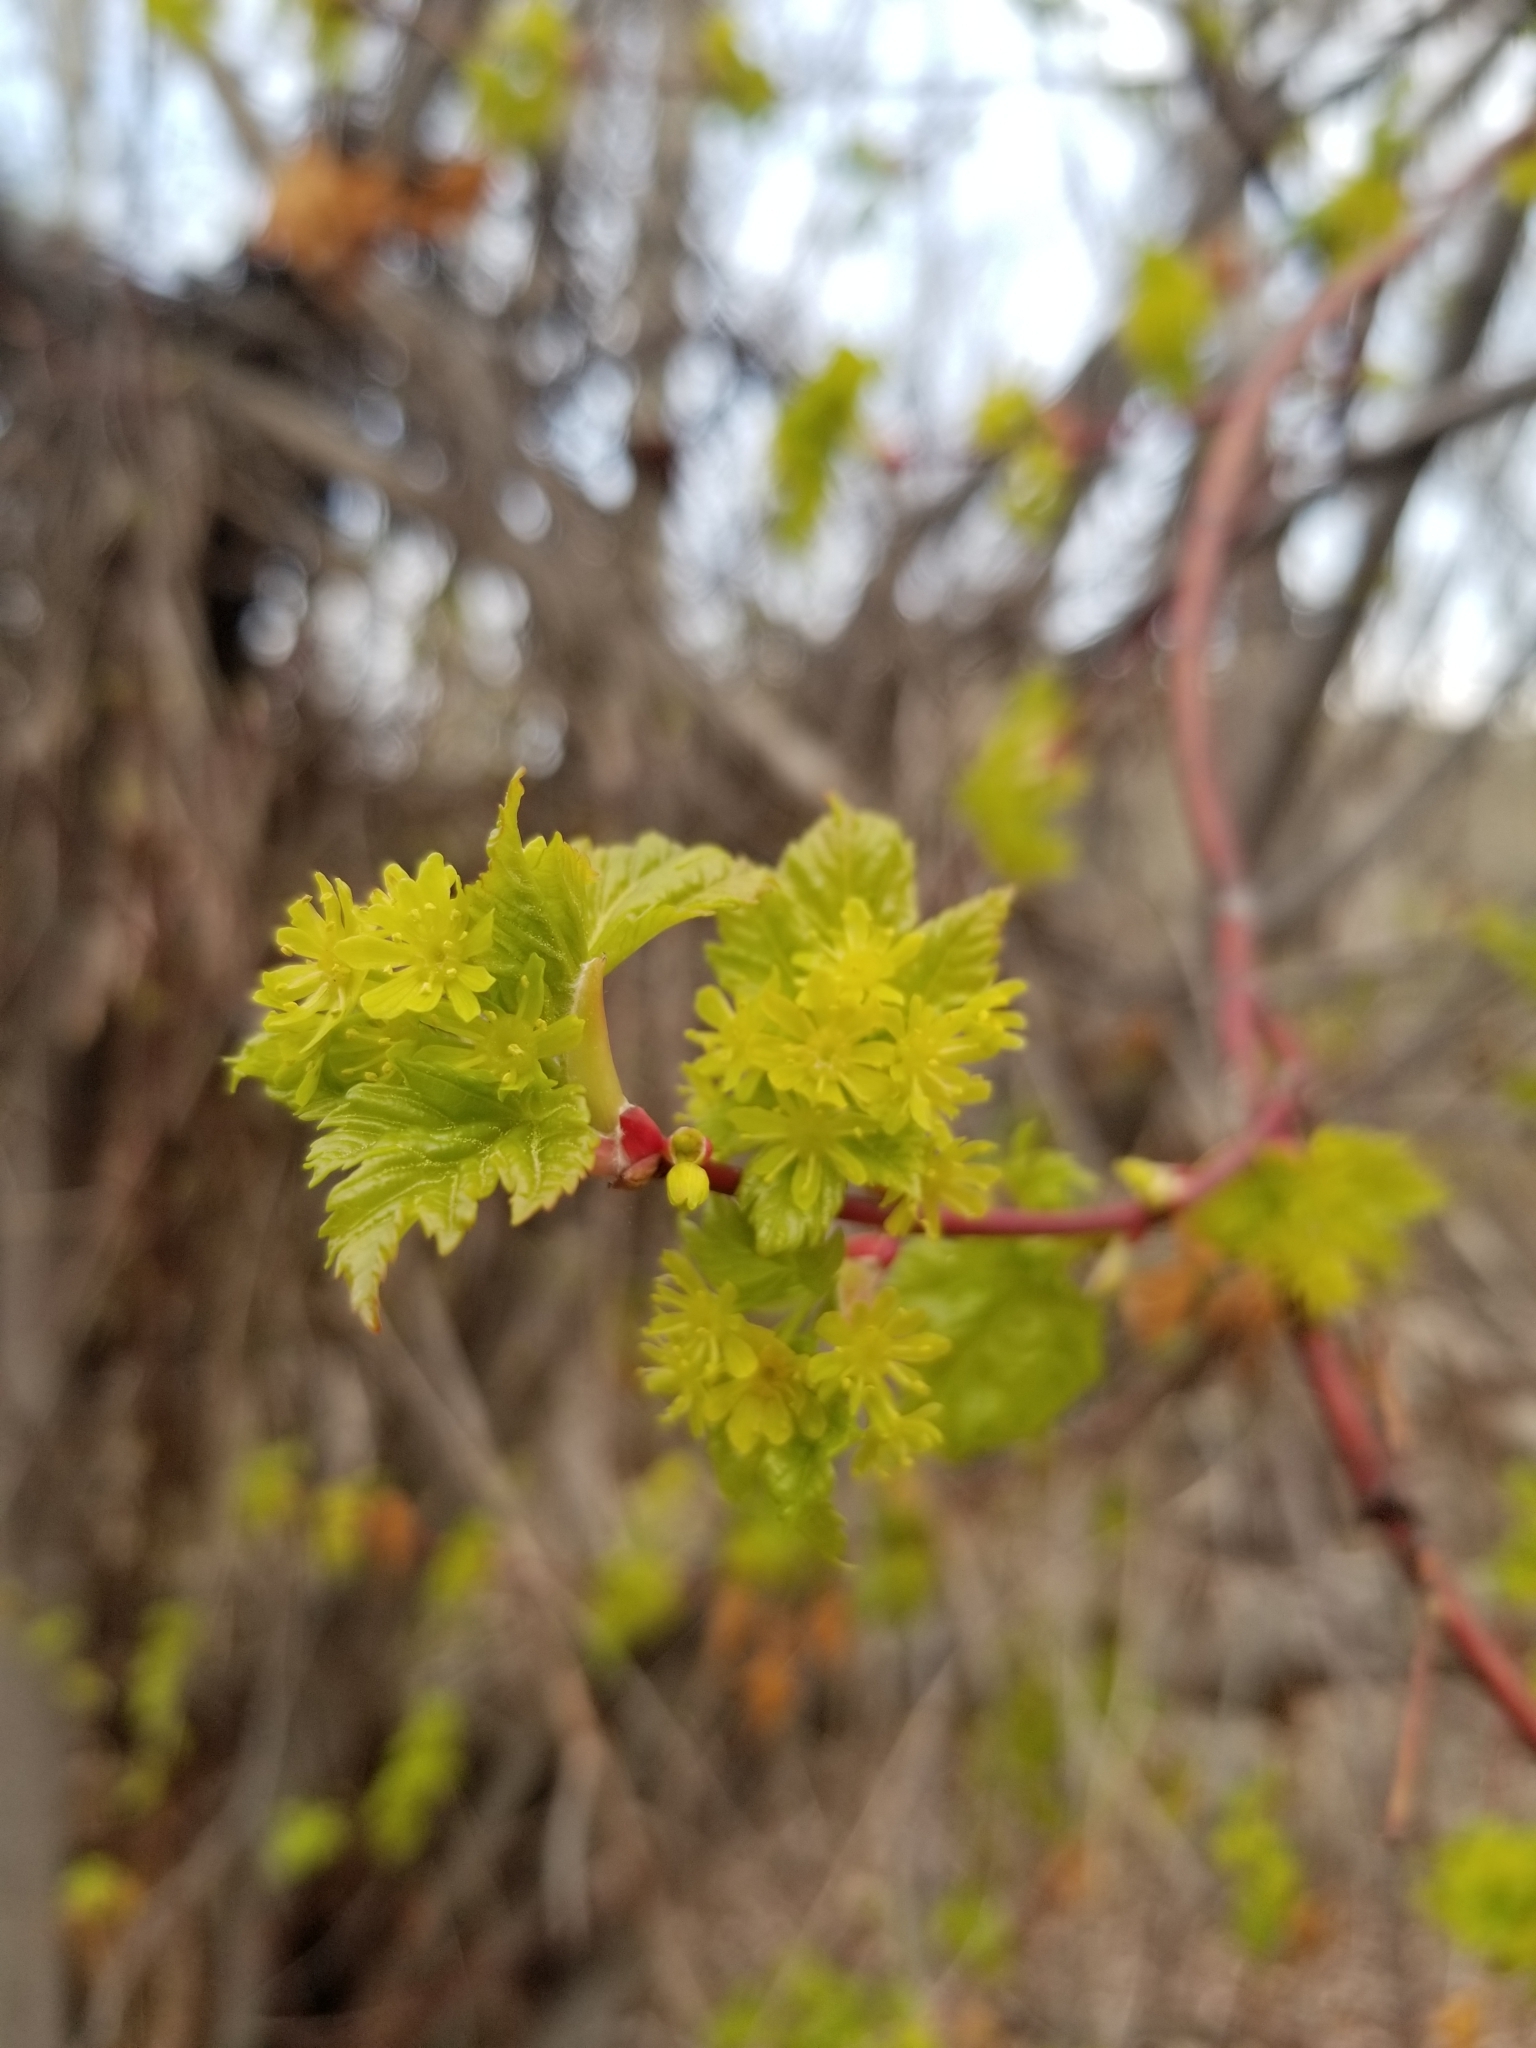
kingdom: Plantae
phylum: Tracheophyta
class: Magnoliopsida
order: Sapindales
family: Sapindaceae
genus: Acer
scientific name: Acer glabrum
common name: Rocky mountain maple
